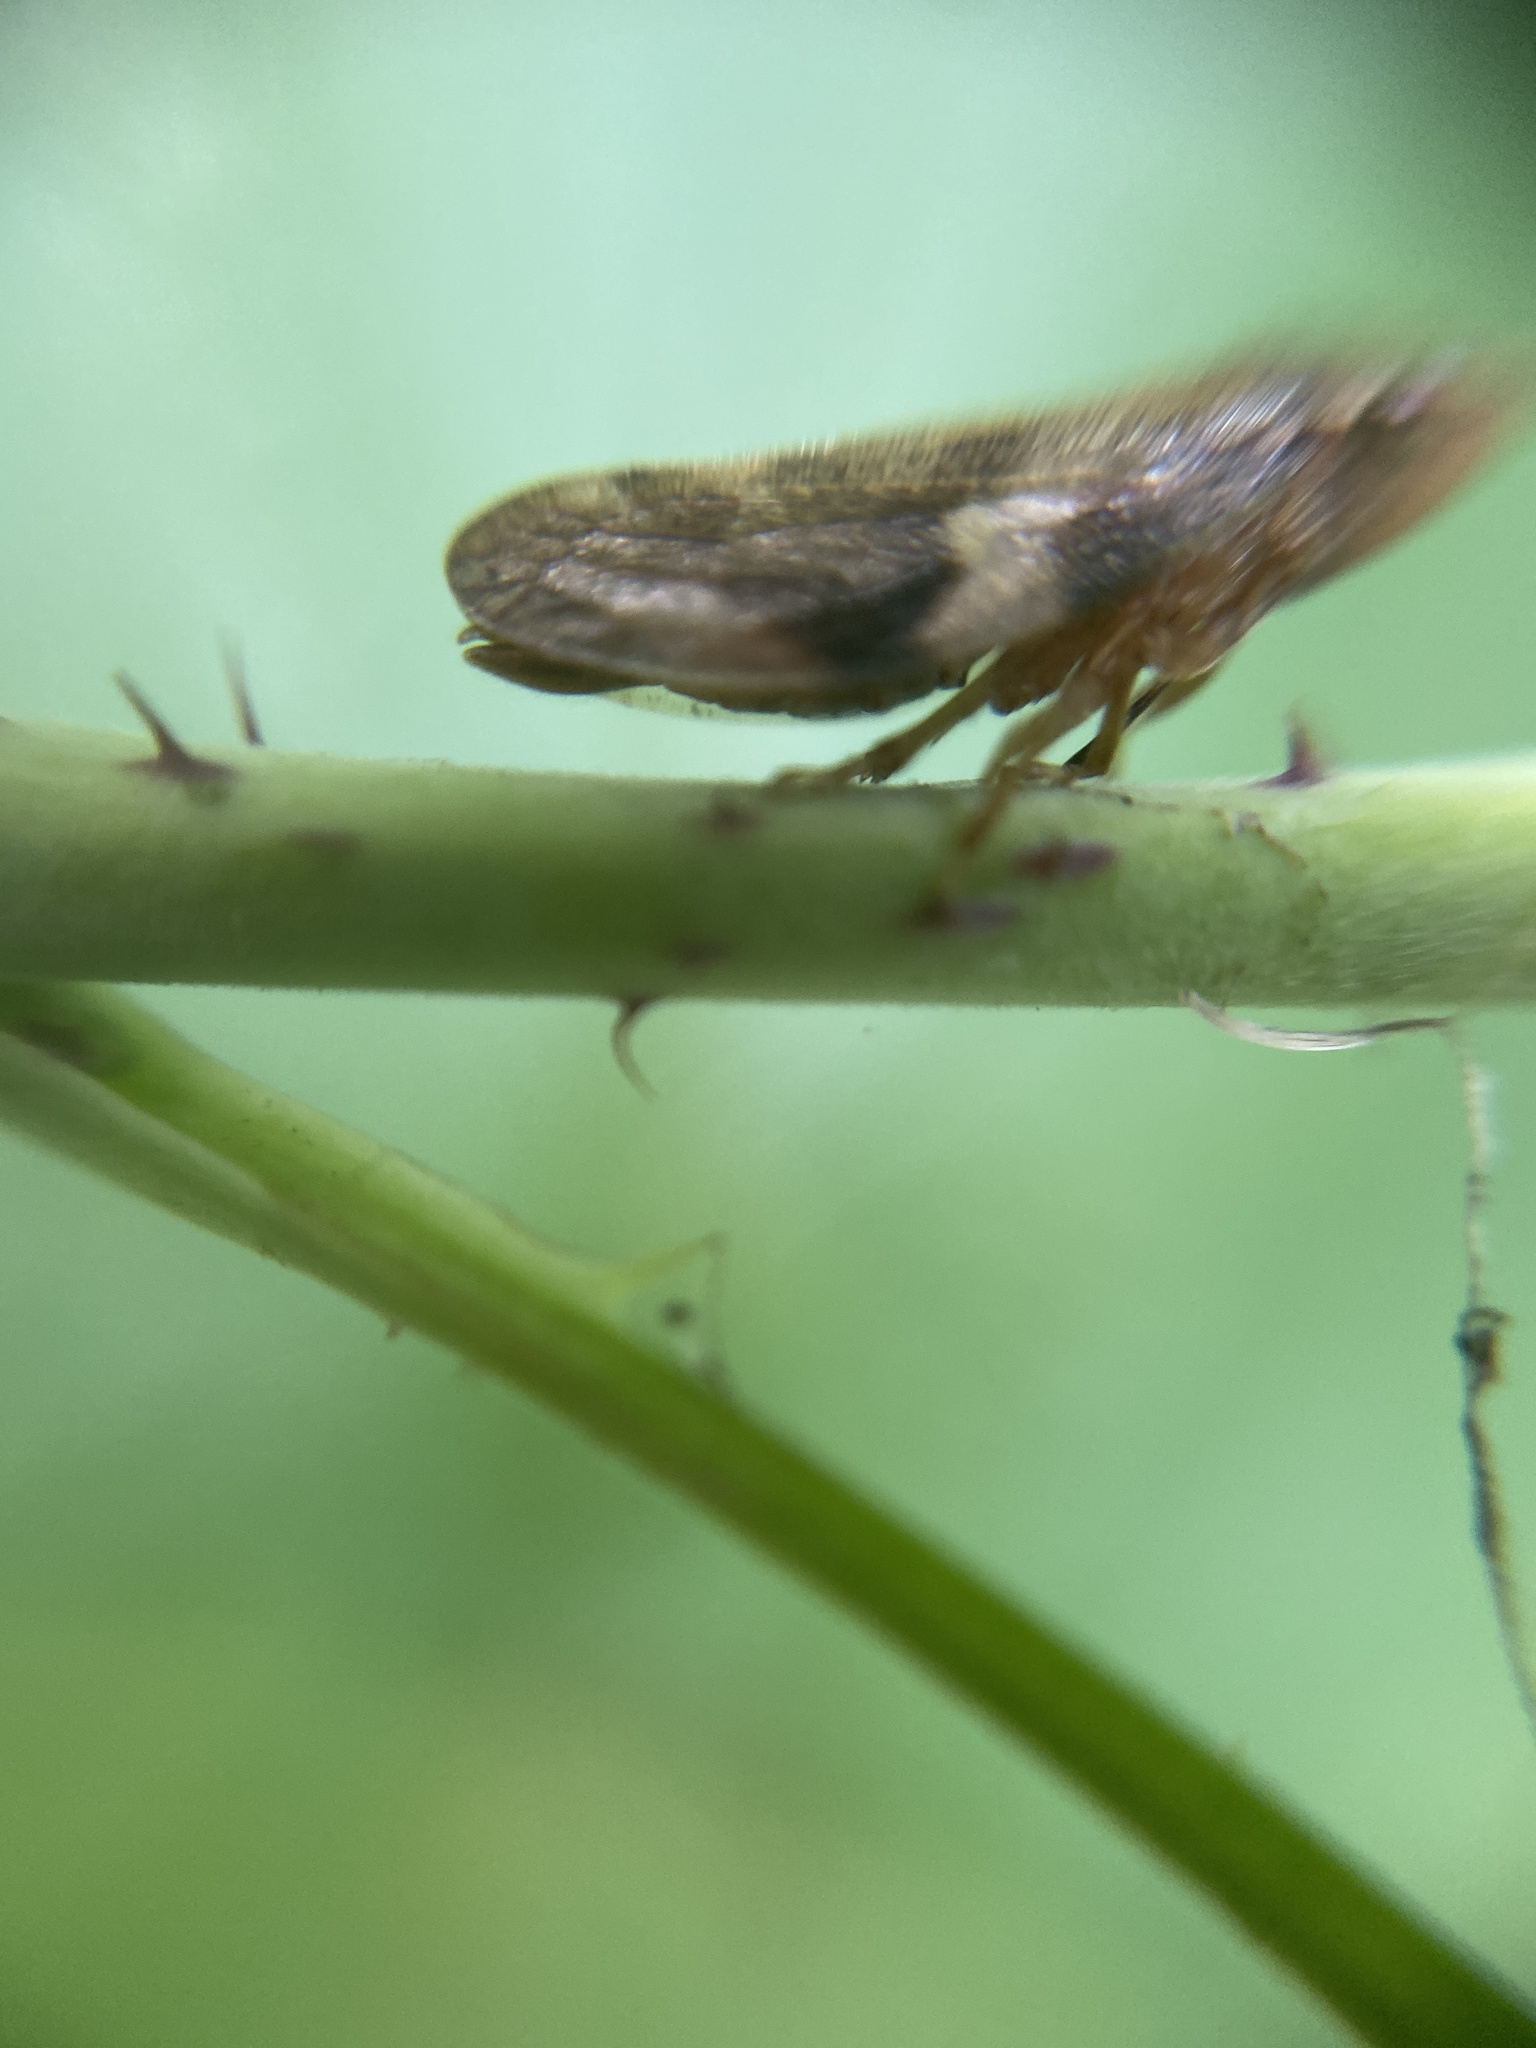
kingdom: Animalia
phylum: Arthropoda
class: Insecta
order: Hemiptera
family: Aphrophoridae
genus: Aphrophora
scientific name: Aphrophora alni
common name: European alder spittlebug
